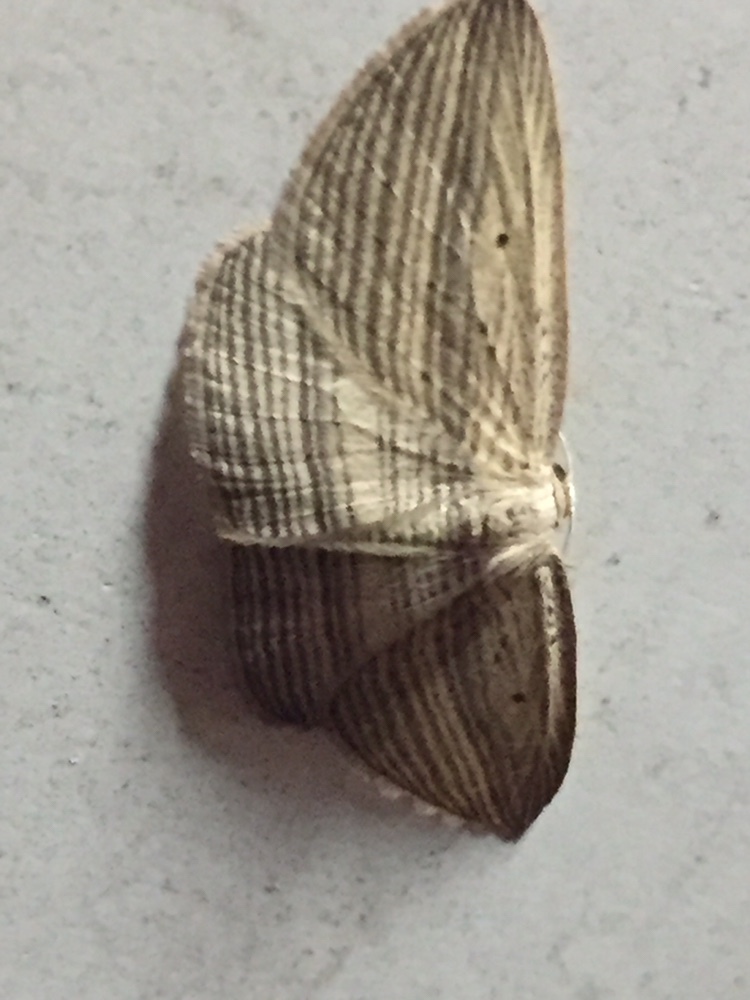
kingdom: Animalia
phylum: Arthropoda
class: Insecta
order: Lepidoptera
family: Geometridae
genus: Epiphryne
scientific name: Epiphryne verriculata
